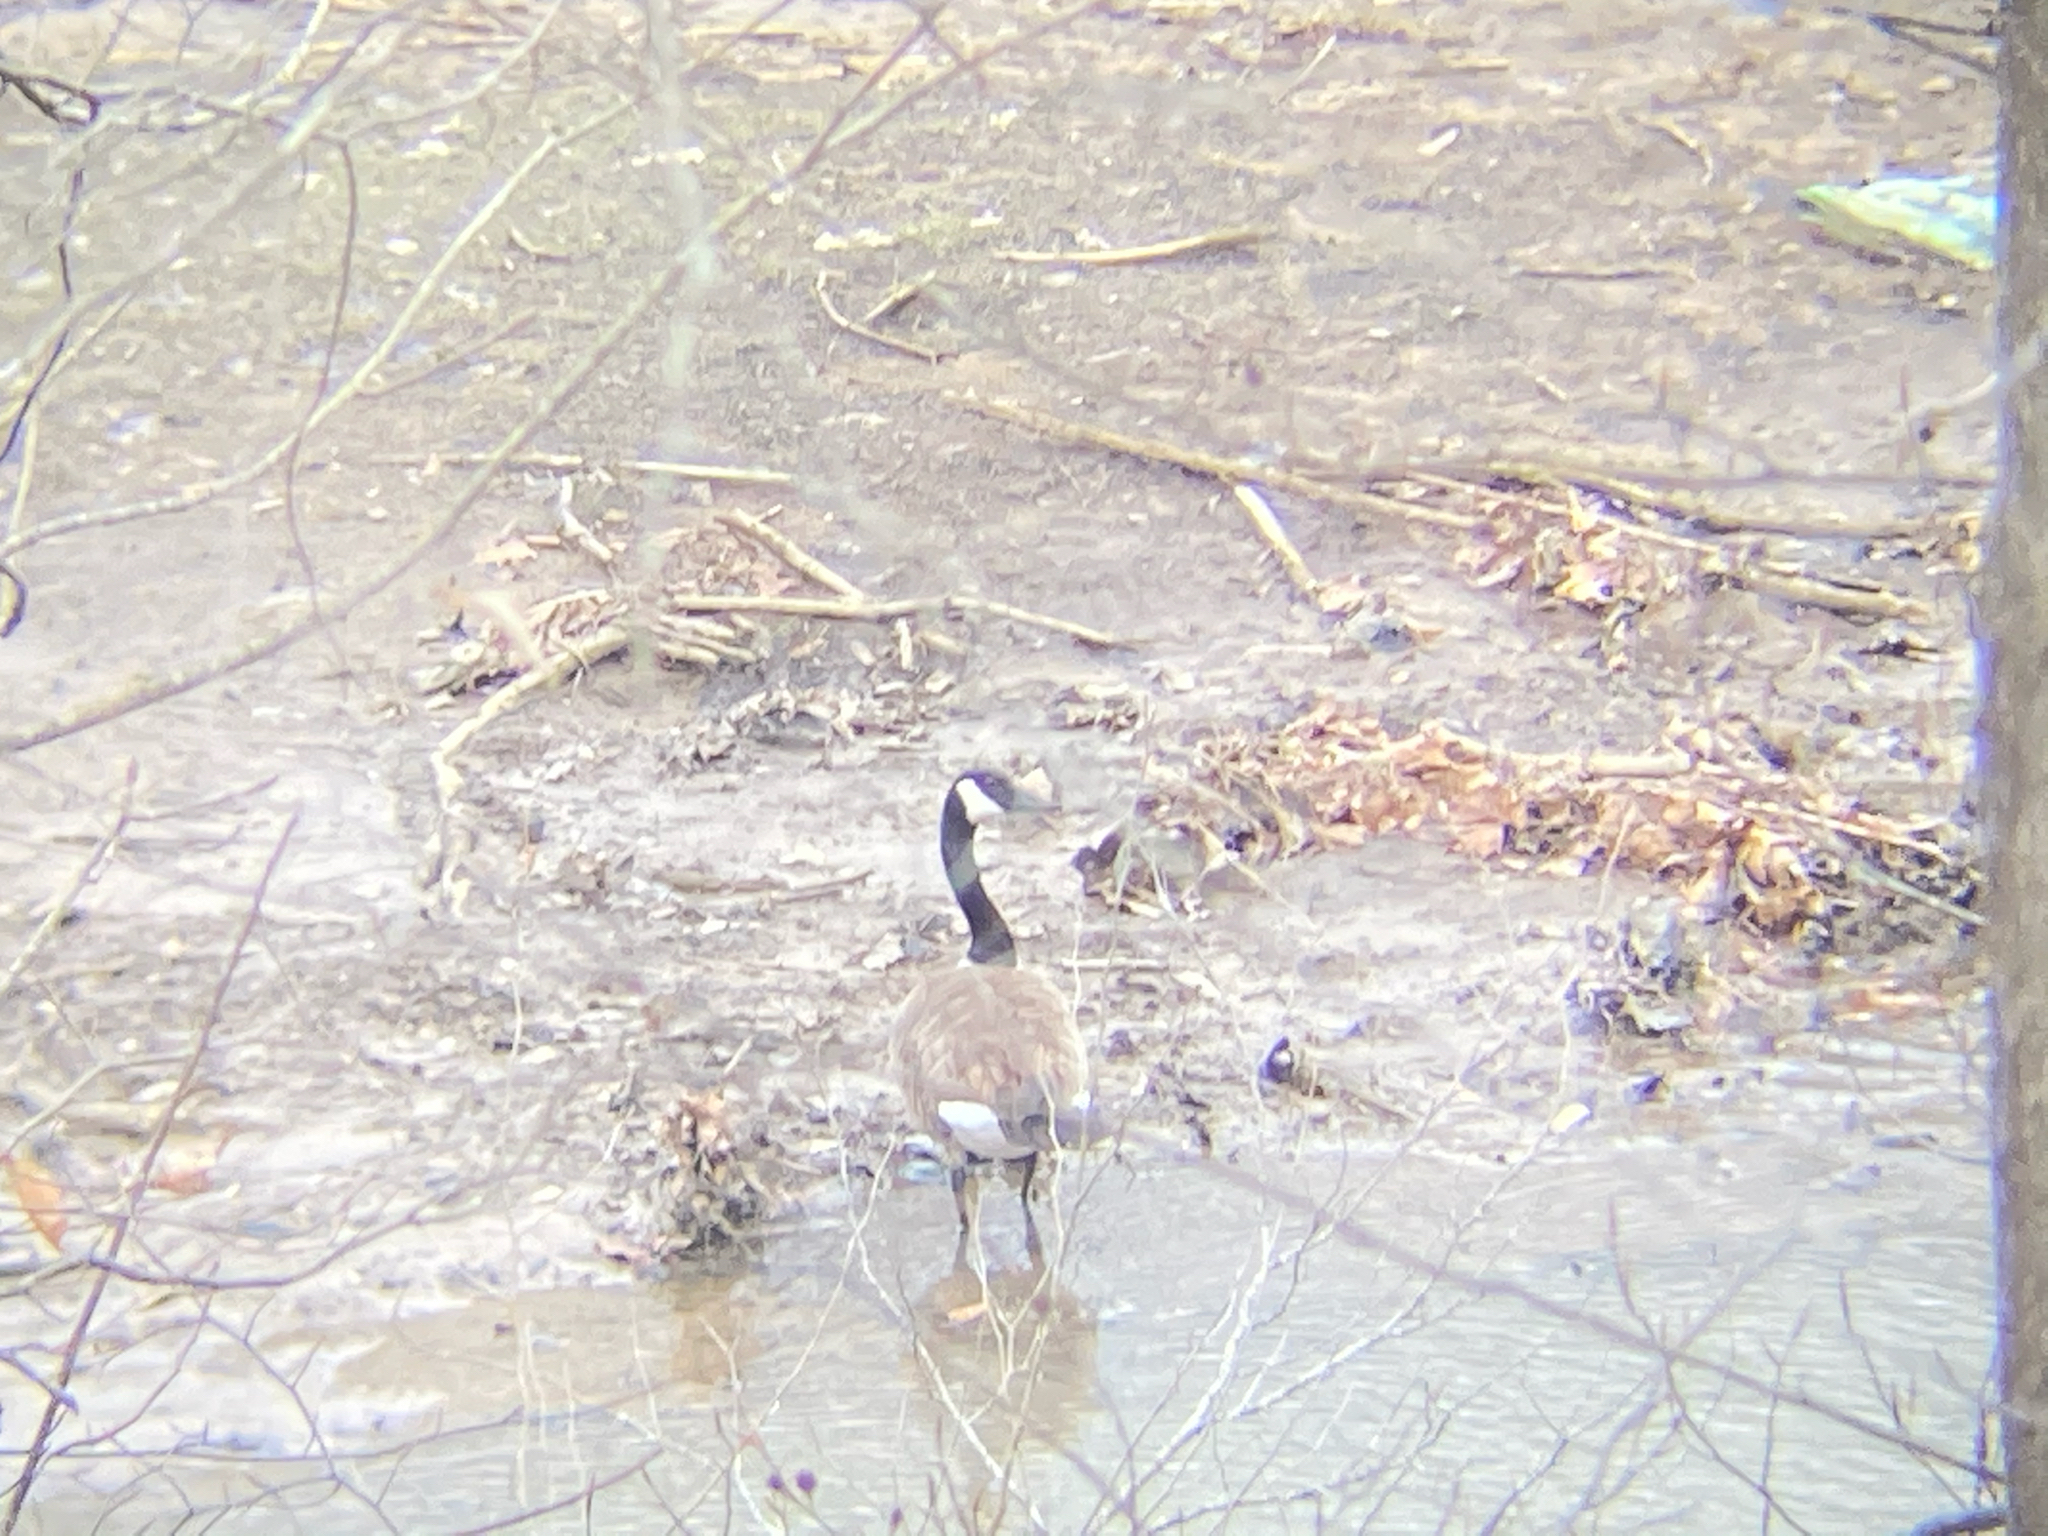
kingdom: Animalia
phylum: Chordata
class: Aves
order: Anseriformes
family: Anatidae
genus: Branta
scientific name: Branta canadensis
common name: Canada goose
